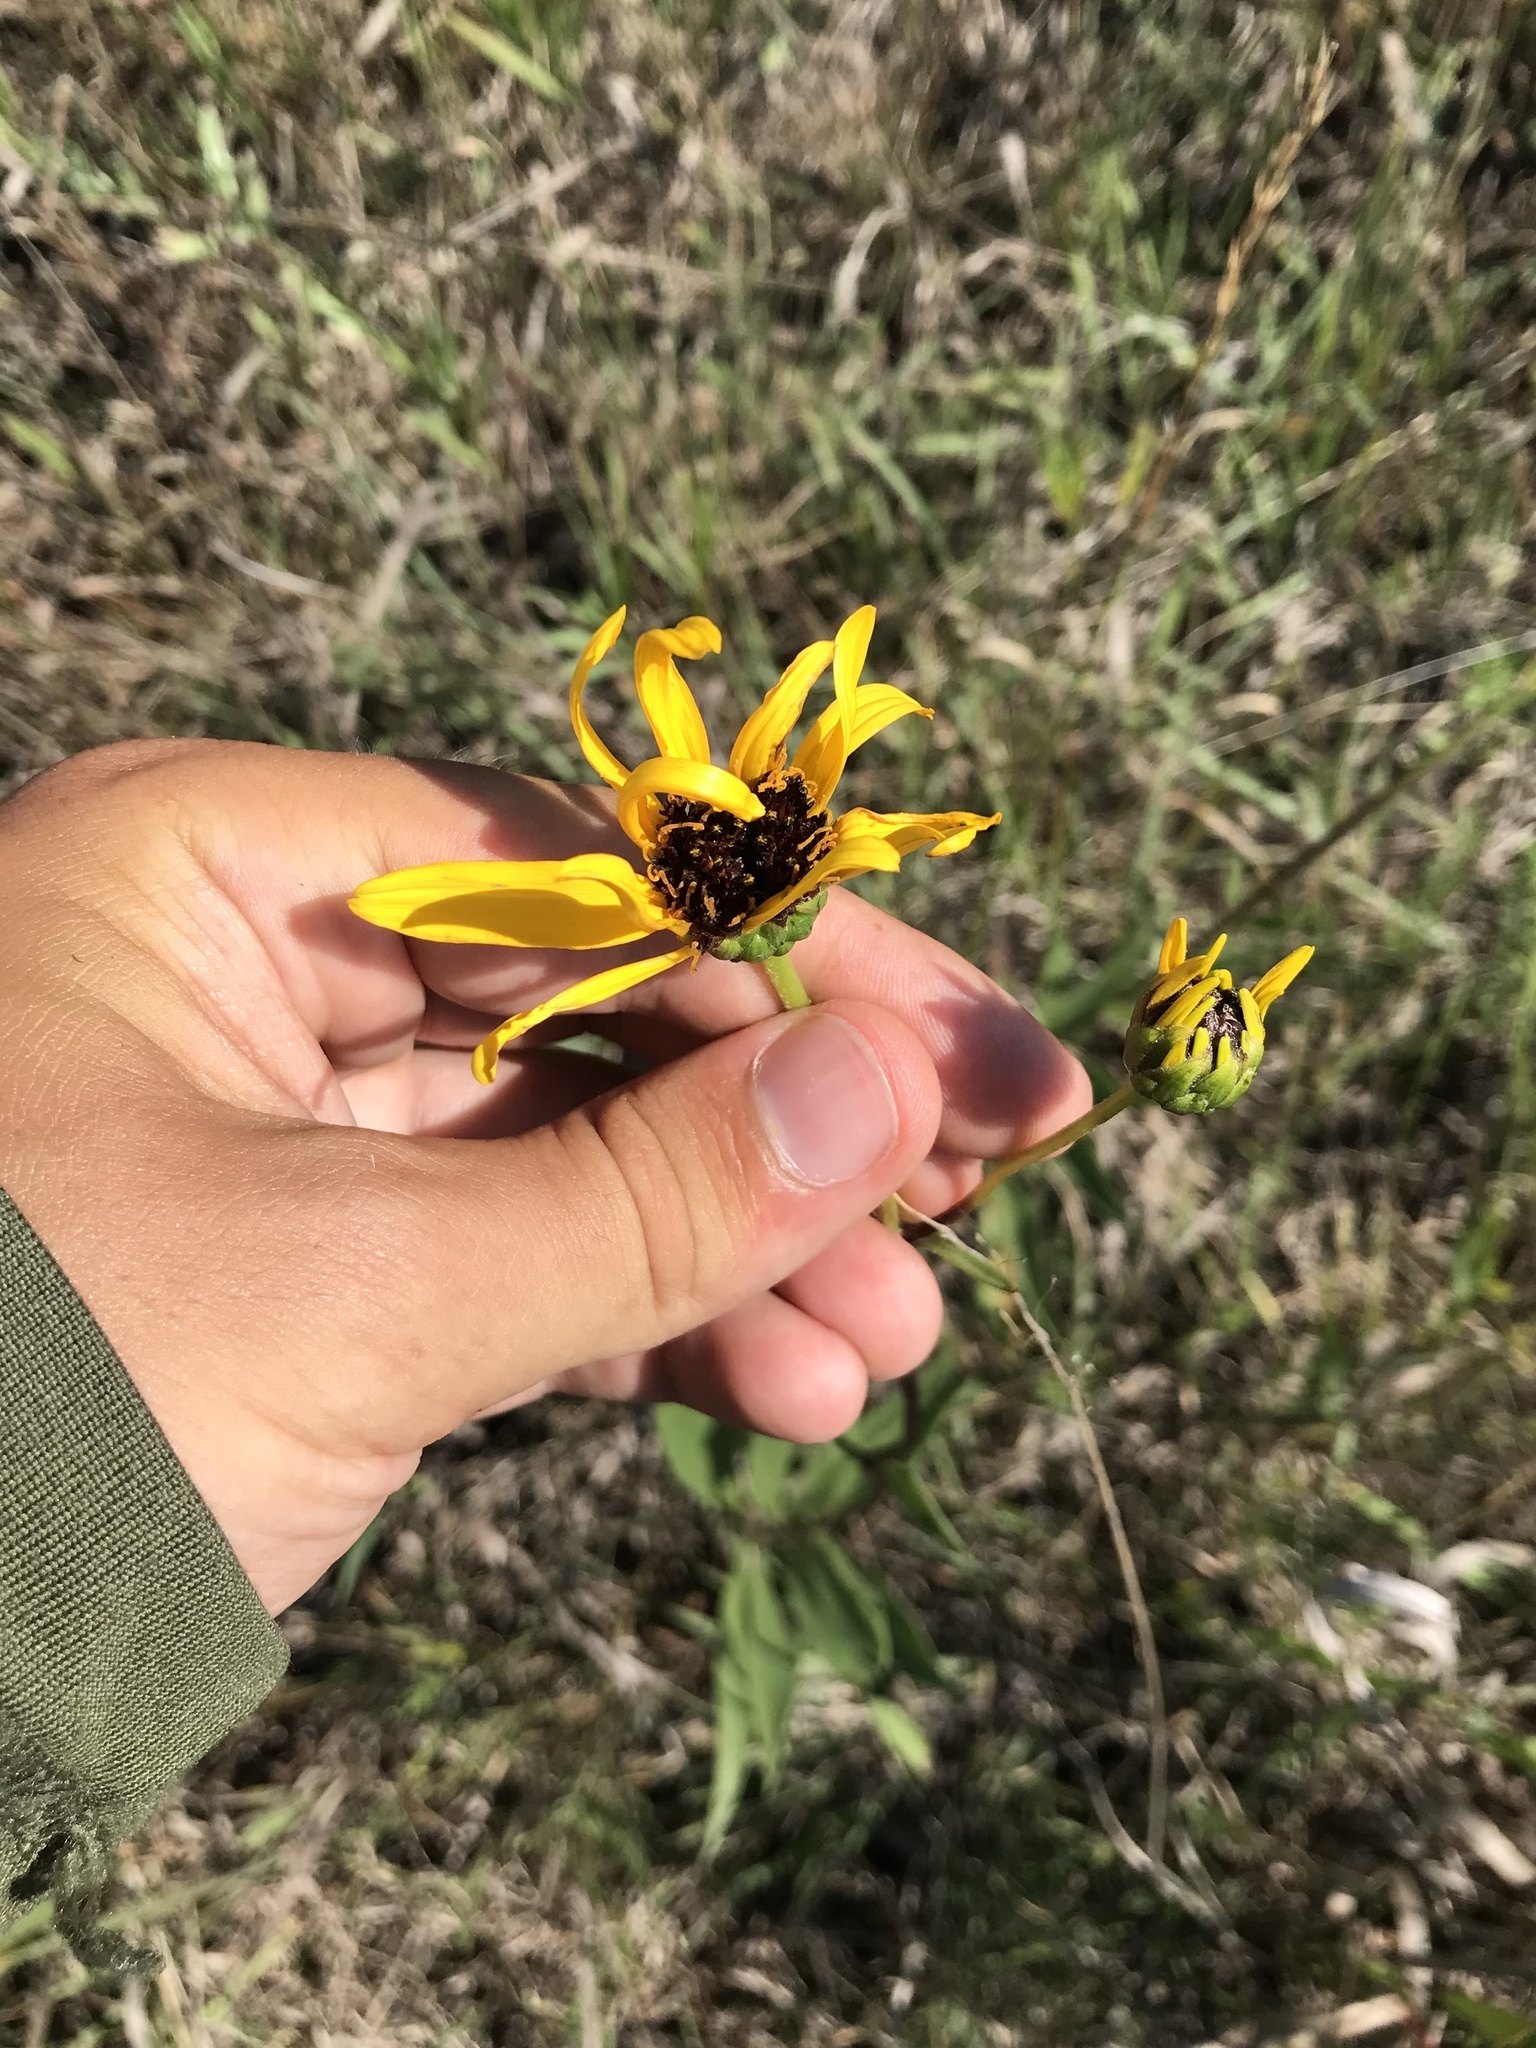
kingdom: Plantae
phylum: Tracheophyta
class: Magnoliopsida
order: Asterales
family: Asteraceae
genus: Helianthus
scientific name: Helianthus pauciflorus
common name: Stiff sunflower
